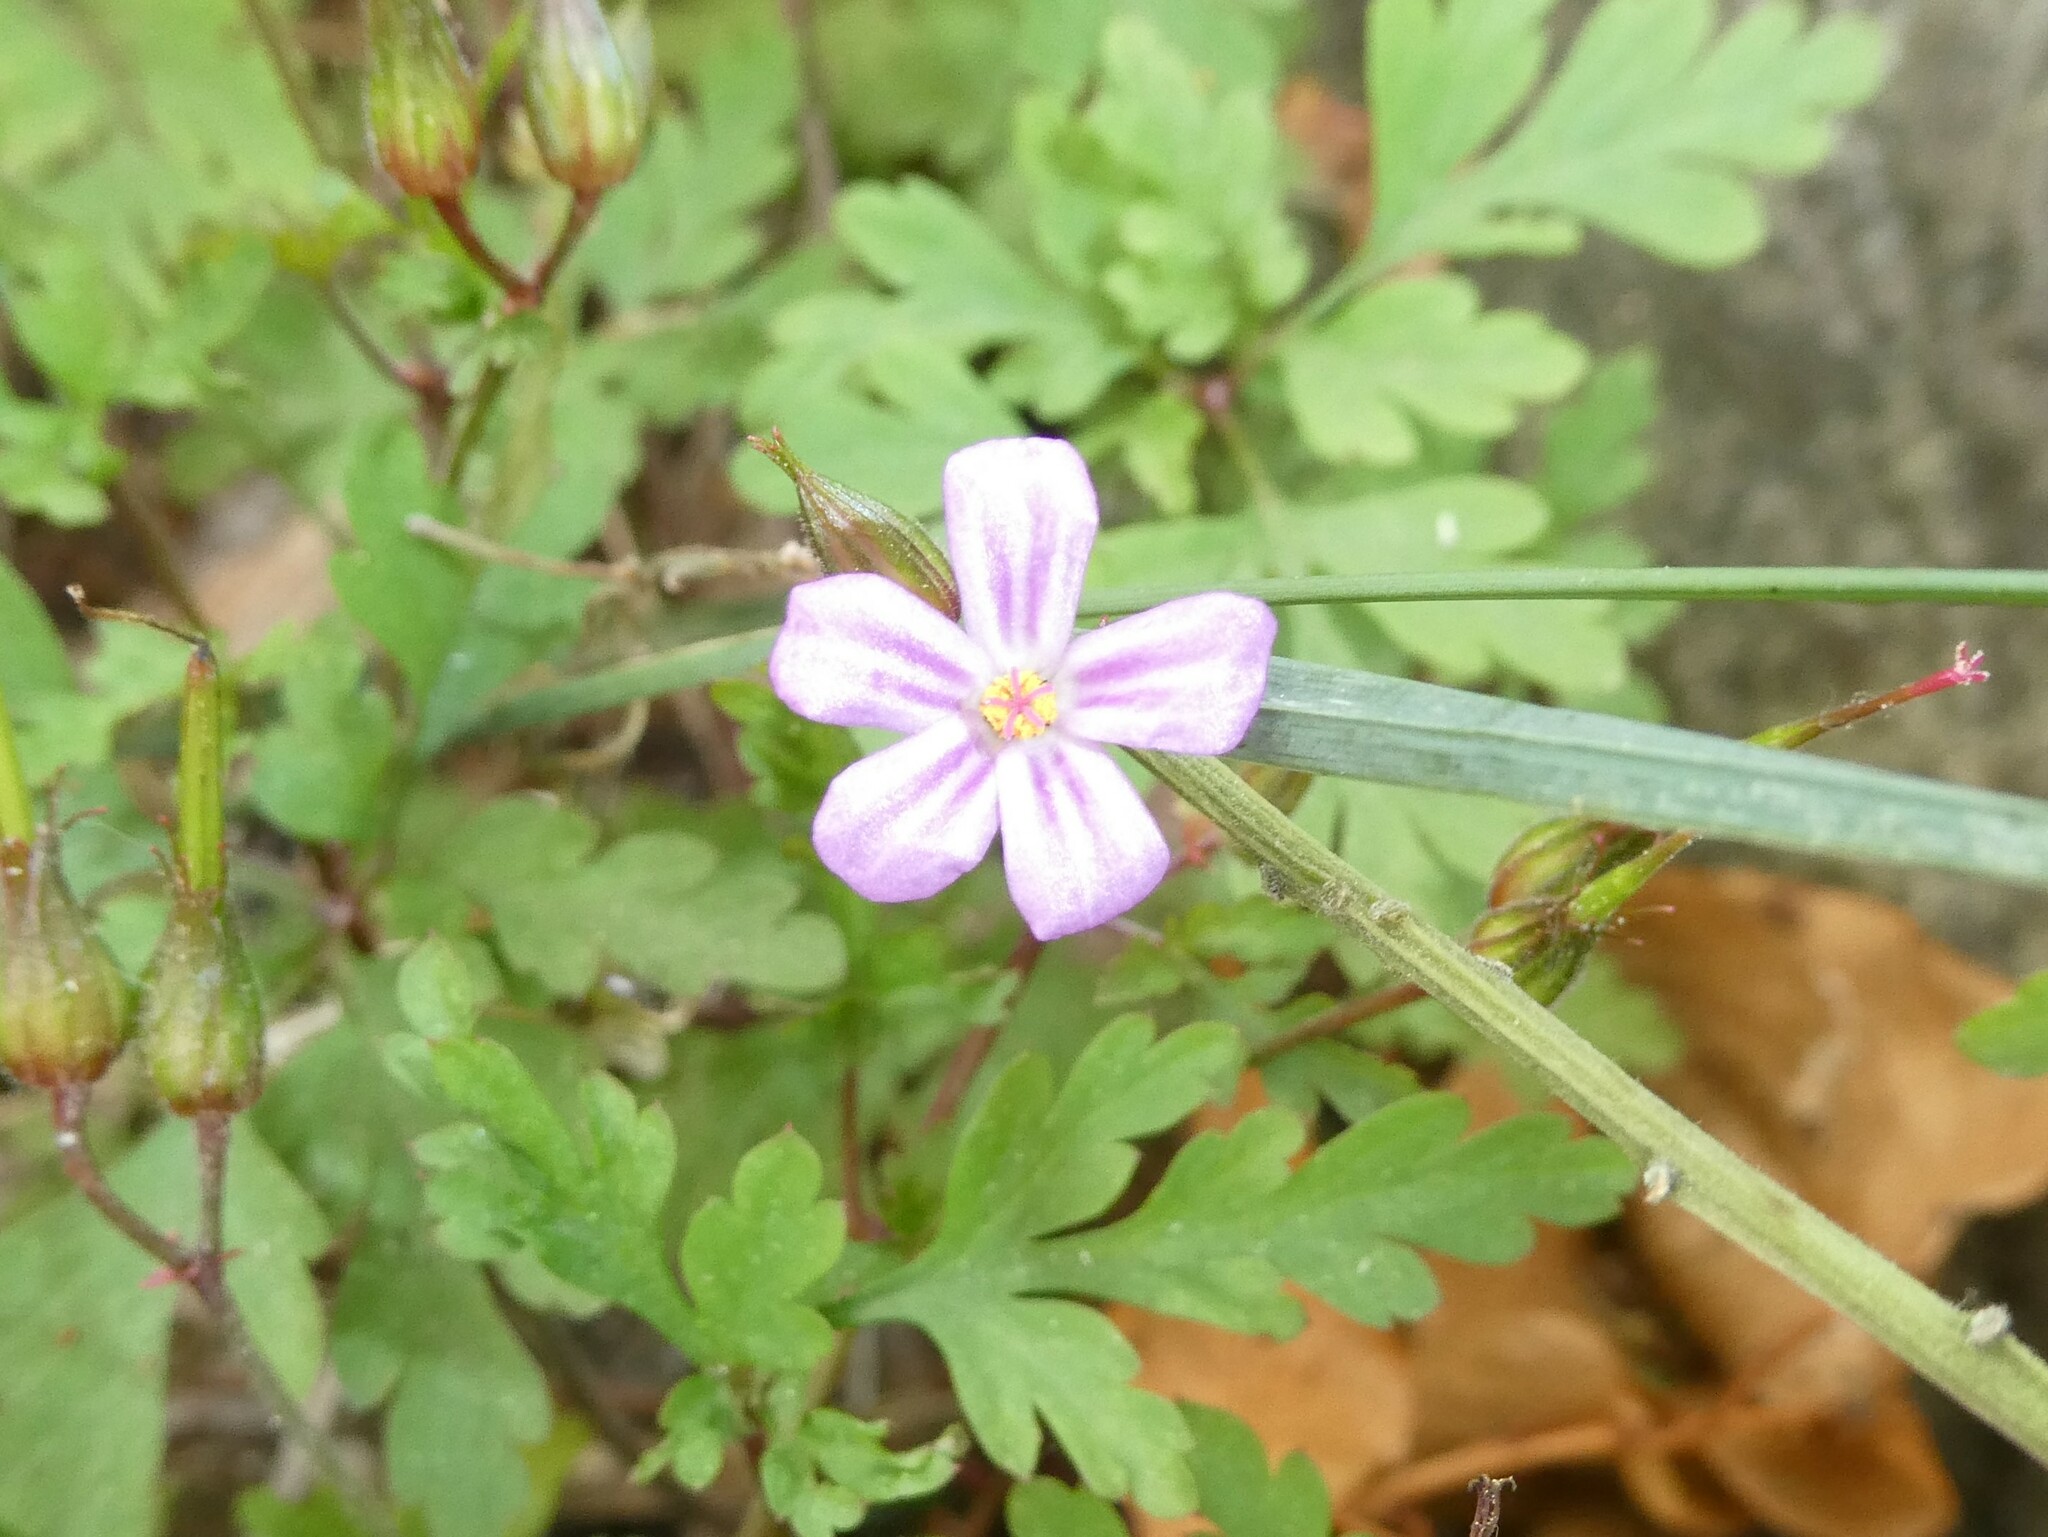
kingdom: Plantae
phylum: Tracheophyta
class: Magnoliopsida
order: Geraniales
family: Geraniaceae
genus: Geranium
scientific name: Geranium robertianum
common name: Herb-robert
